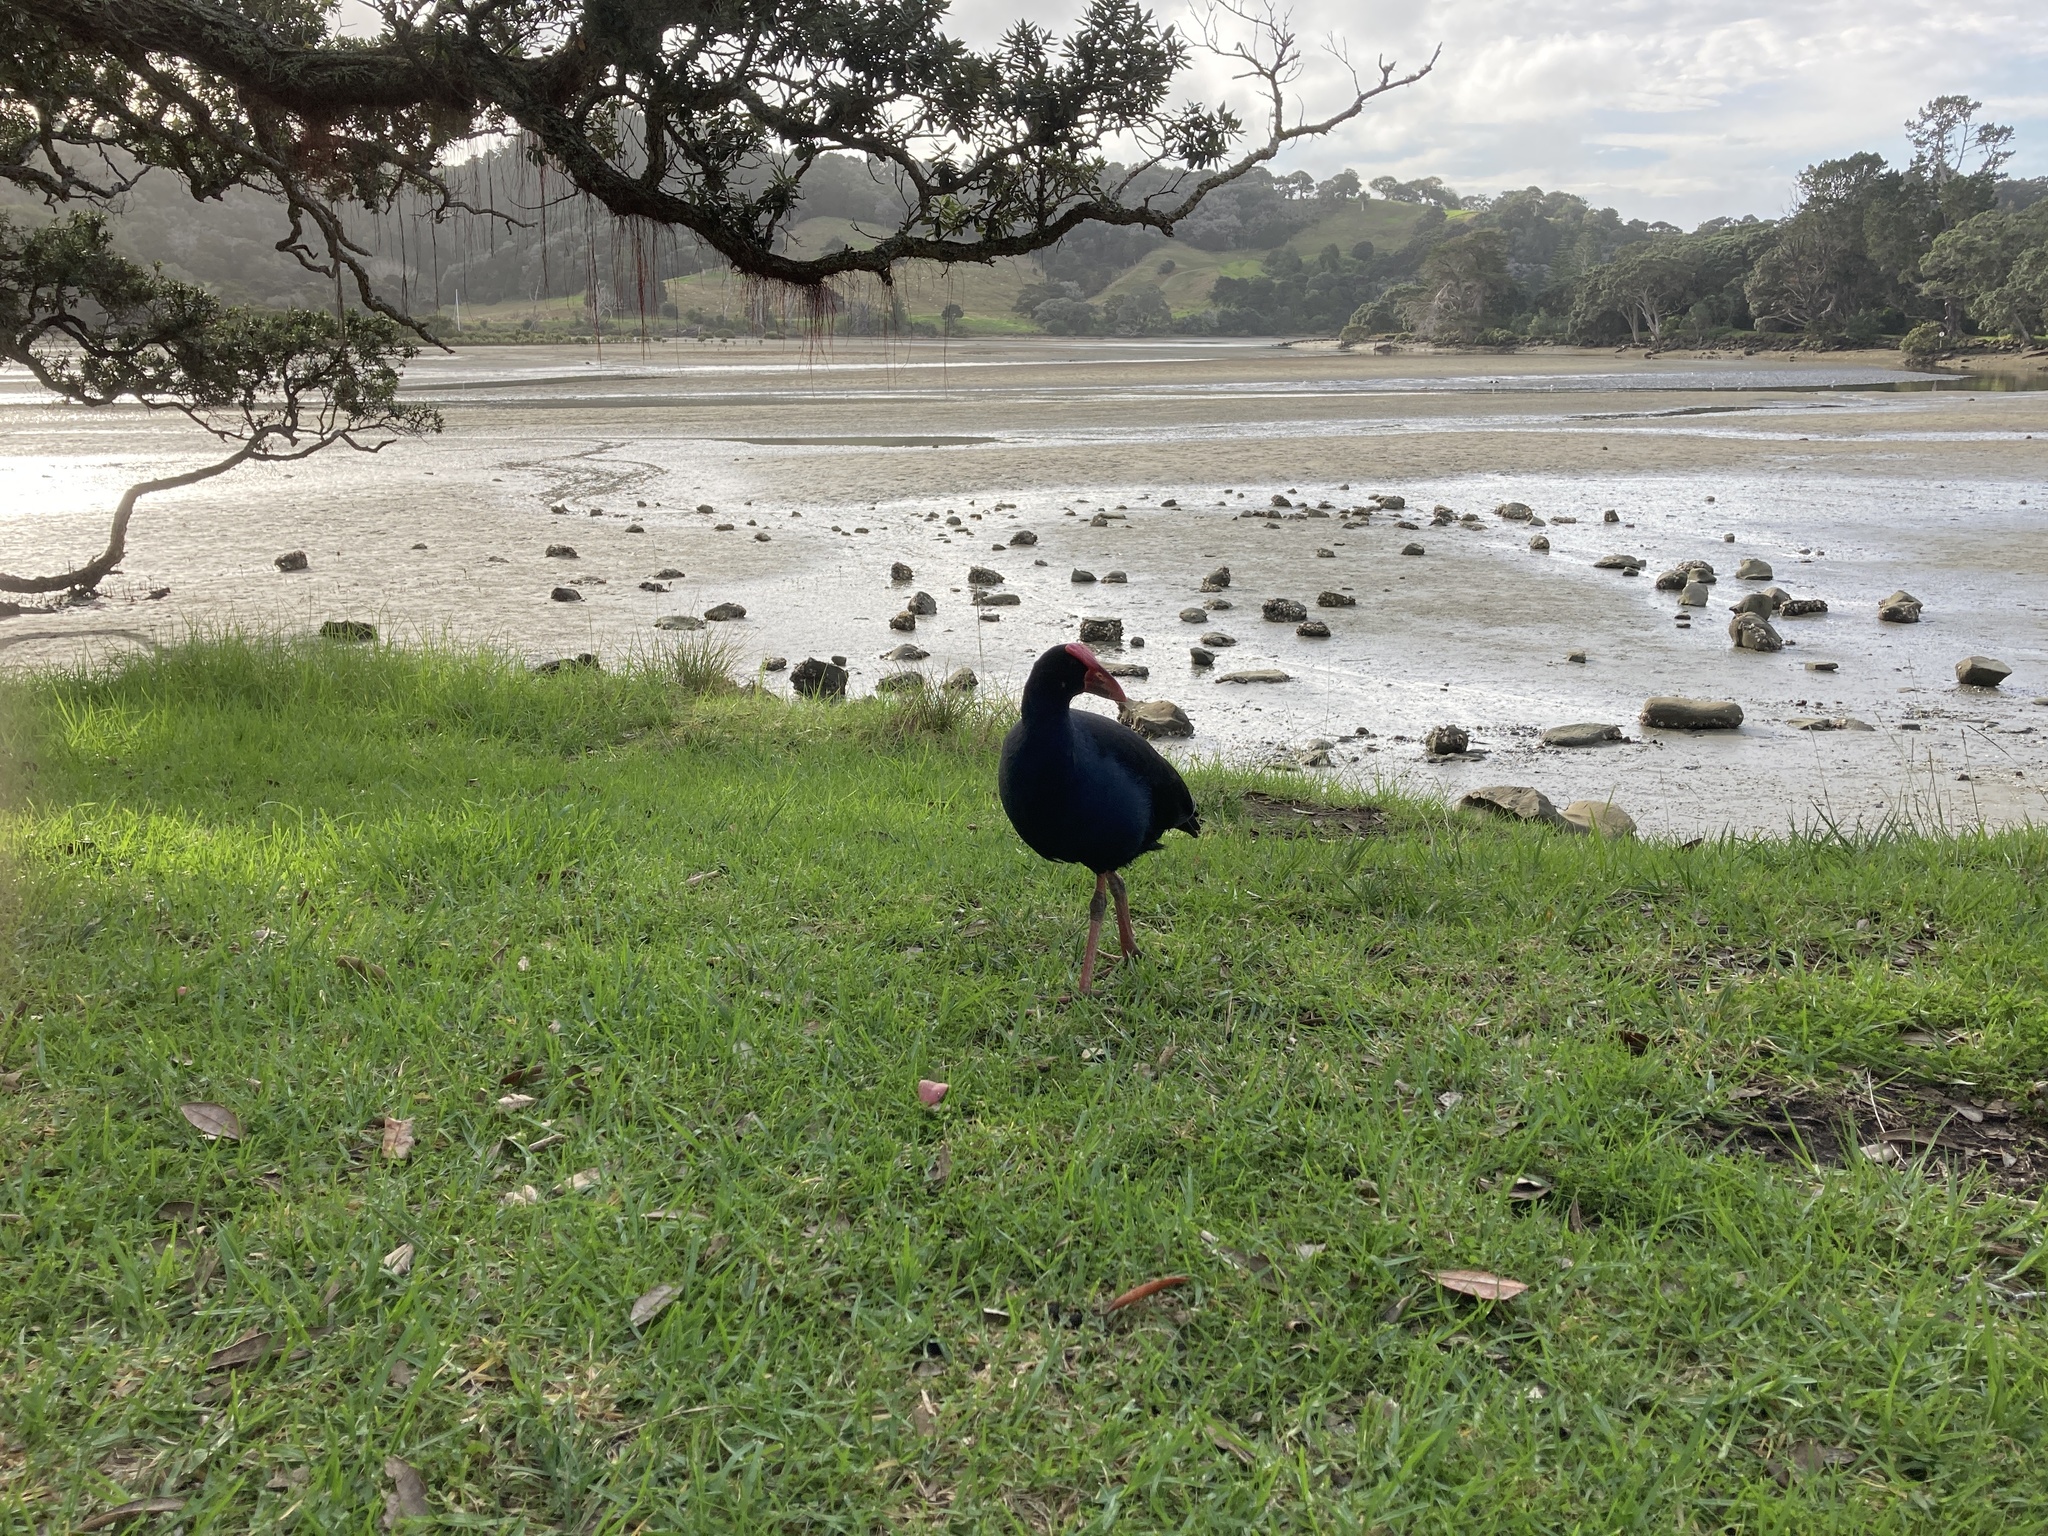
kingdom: Animalia
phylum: Chordata
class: Aves
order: Gruiformes
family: Rallidae
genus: Porphyrio
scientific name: Porphyrio melanotus
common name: Australasian swamphen
